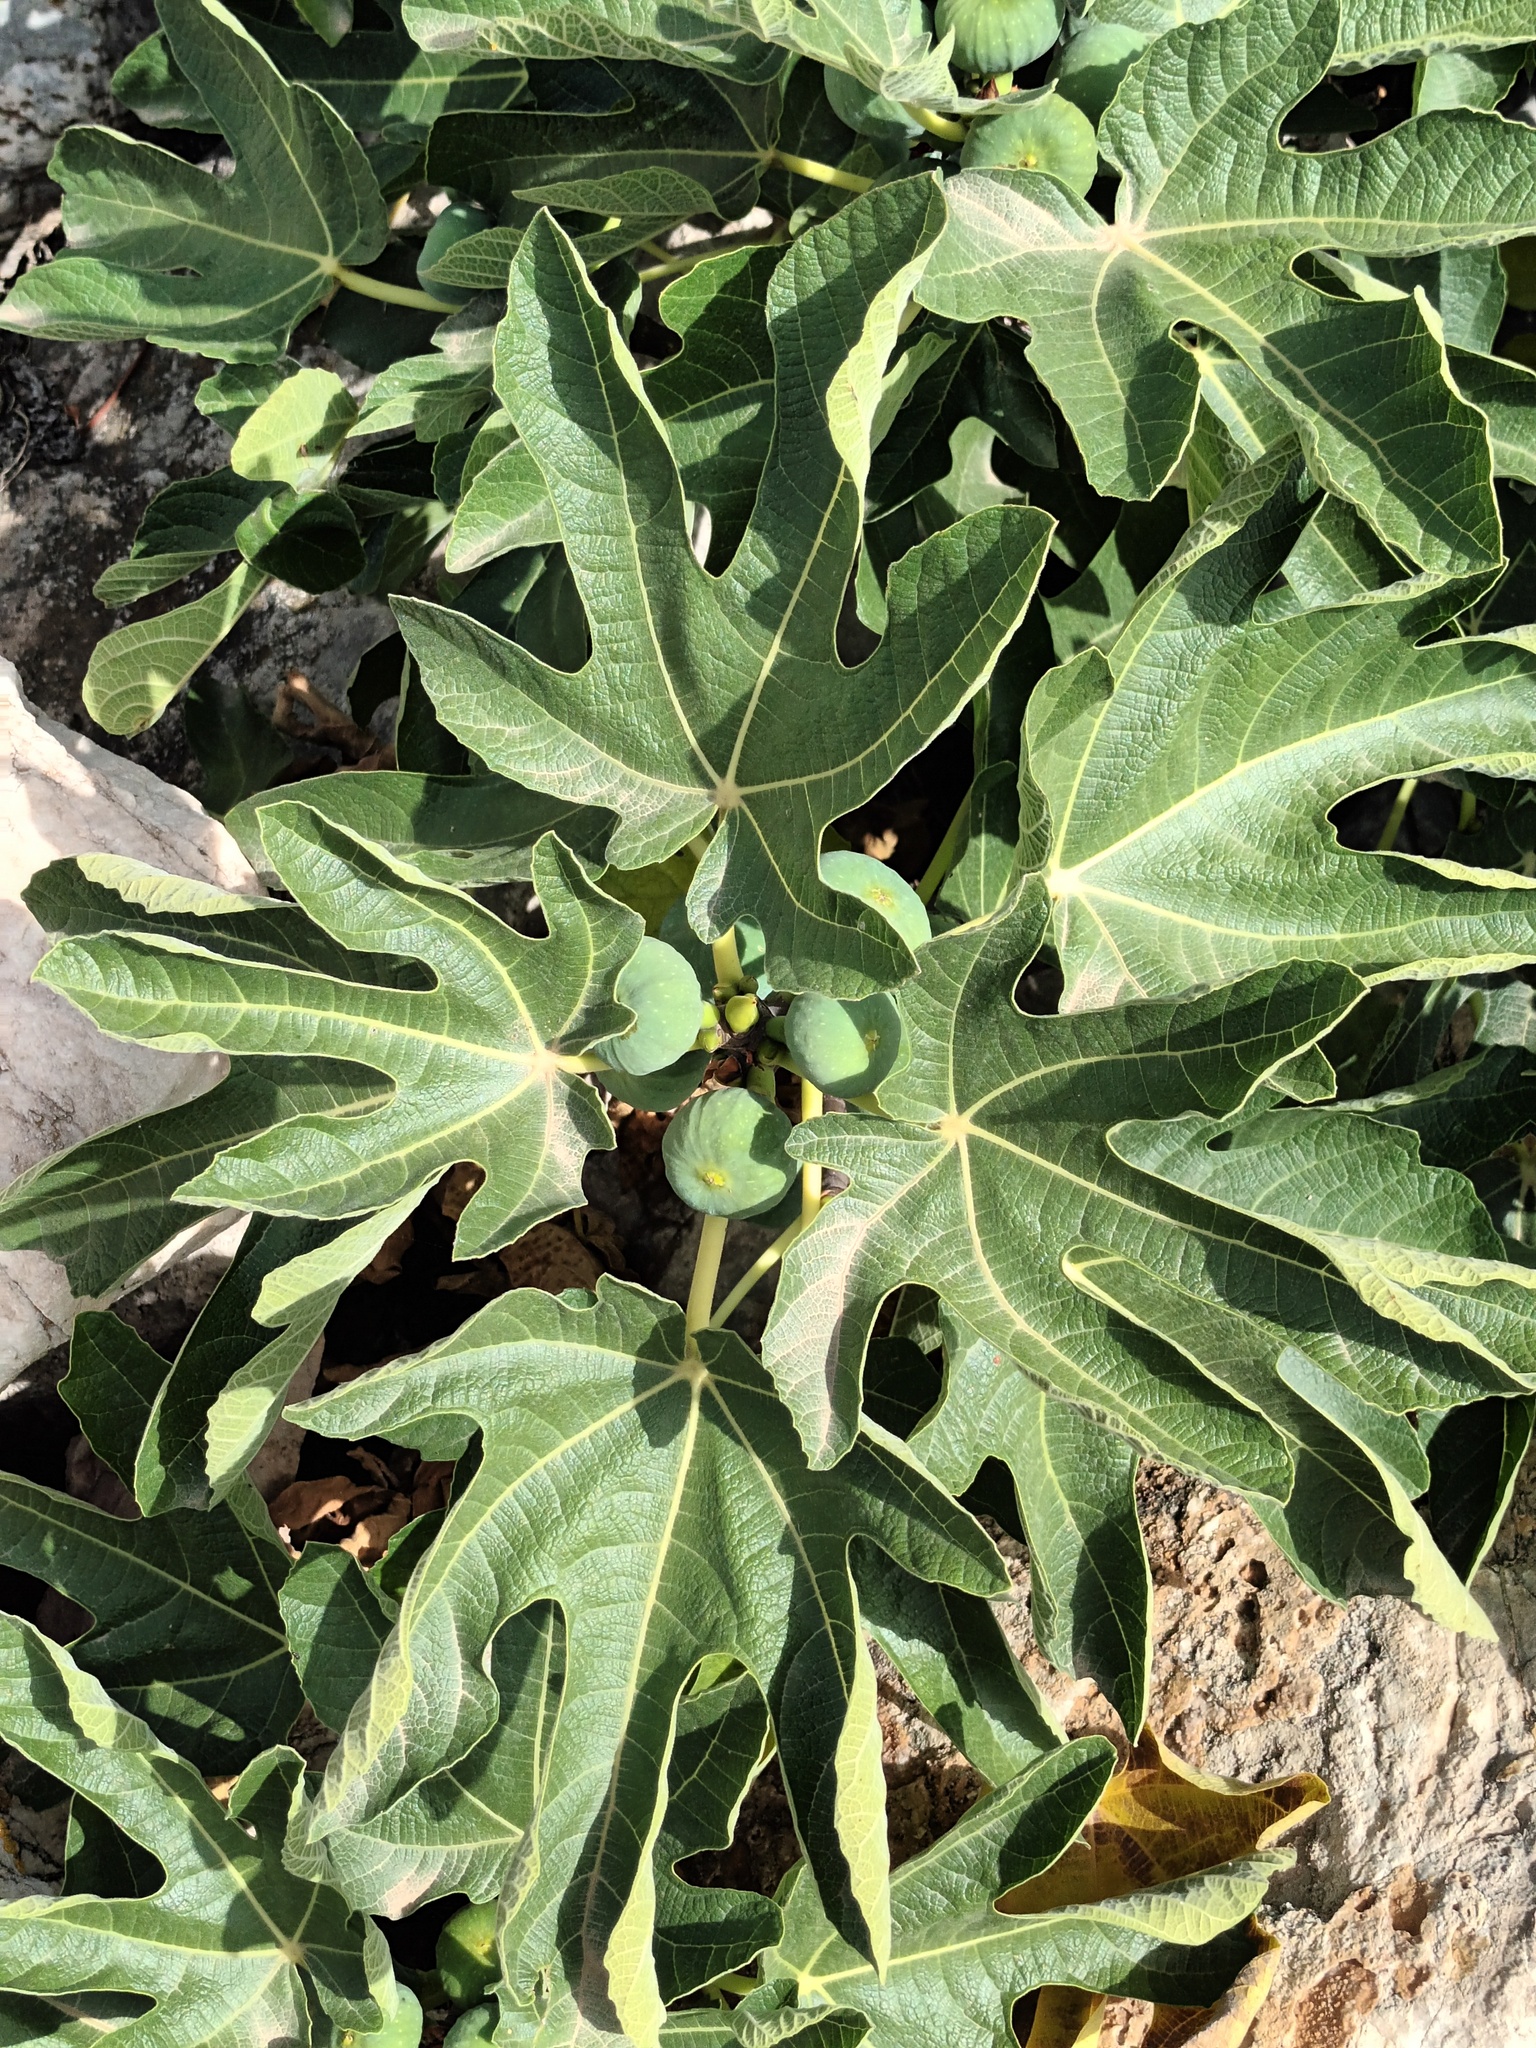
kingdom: Plantae
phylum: Tracheophyta
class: Magnoliopsida
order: Rosales
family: Moraceae
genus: Ficus
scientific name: Ficus carica
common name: Fig
